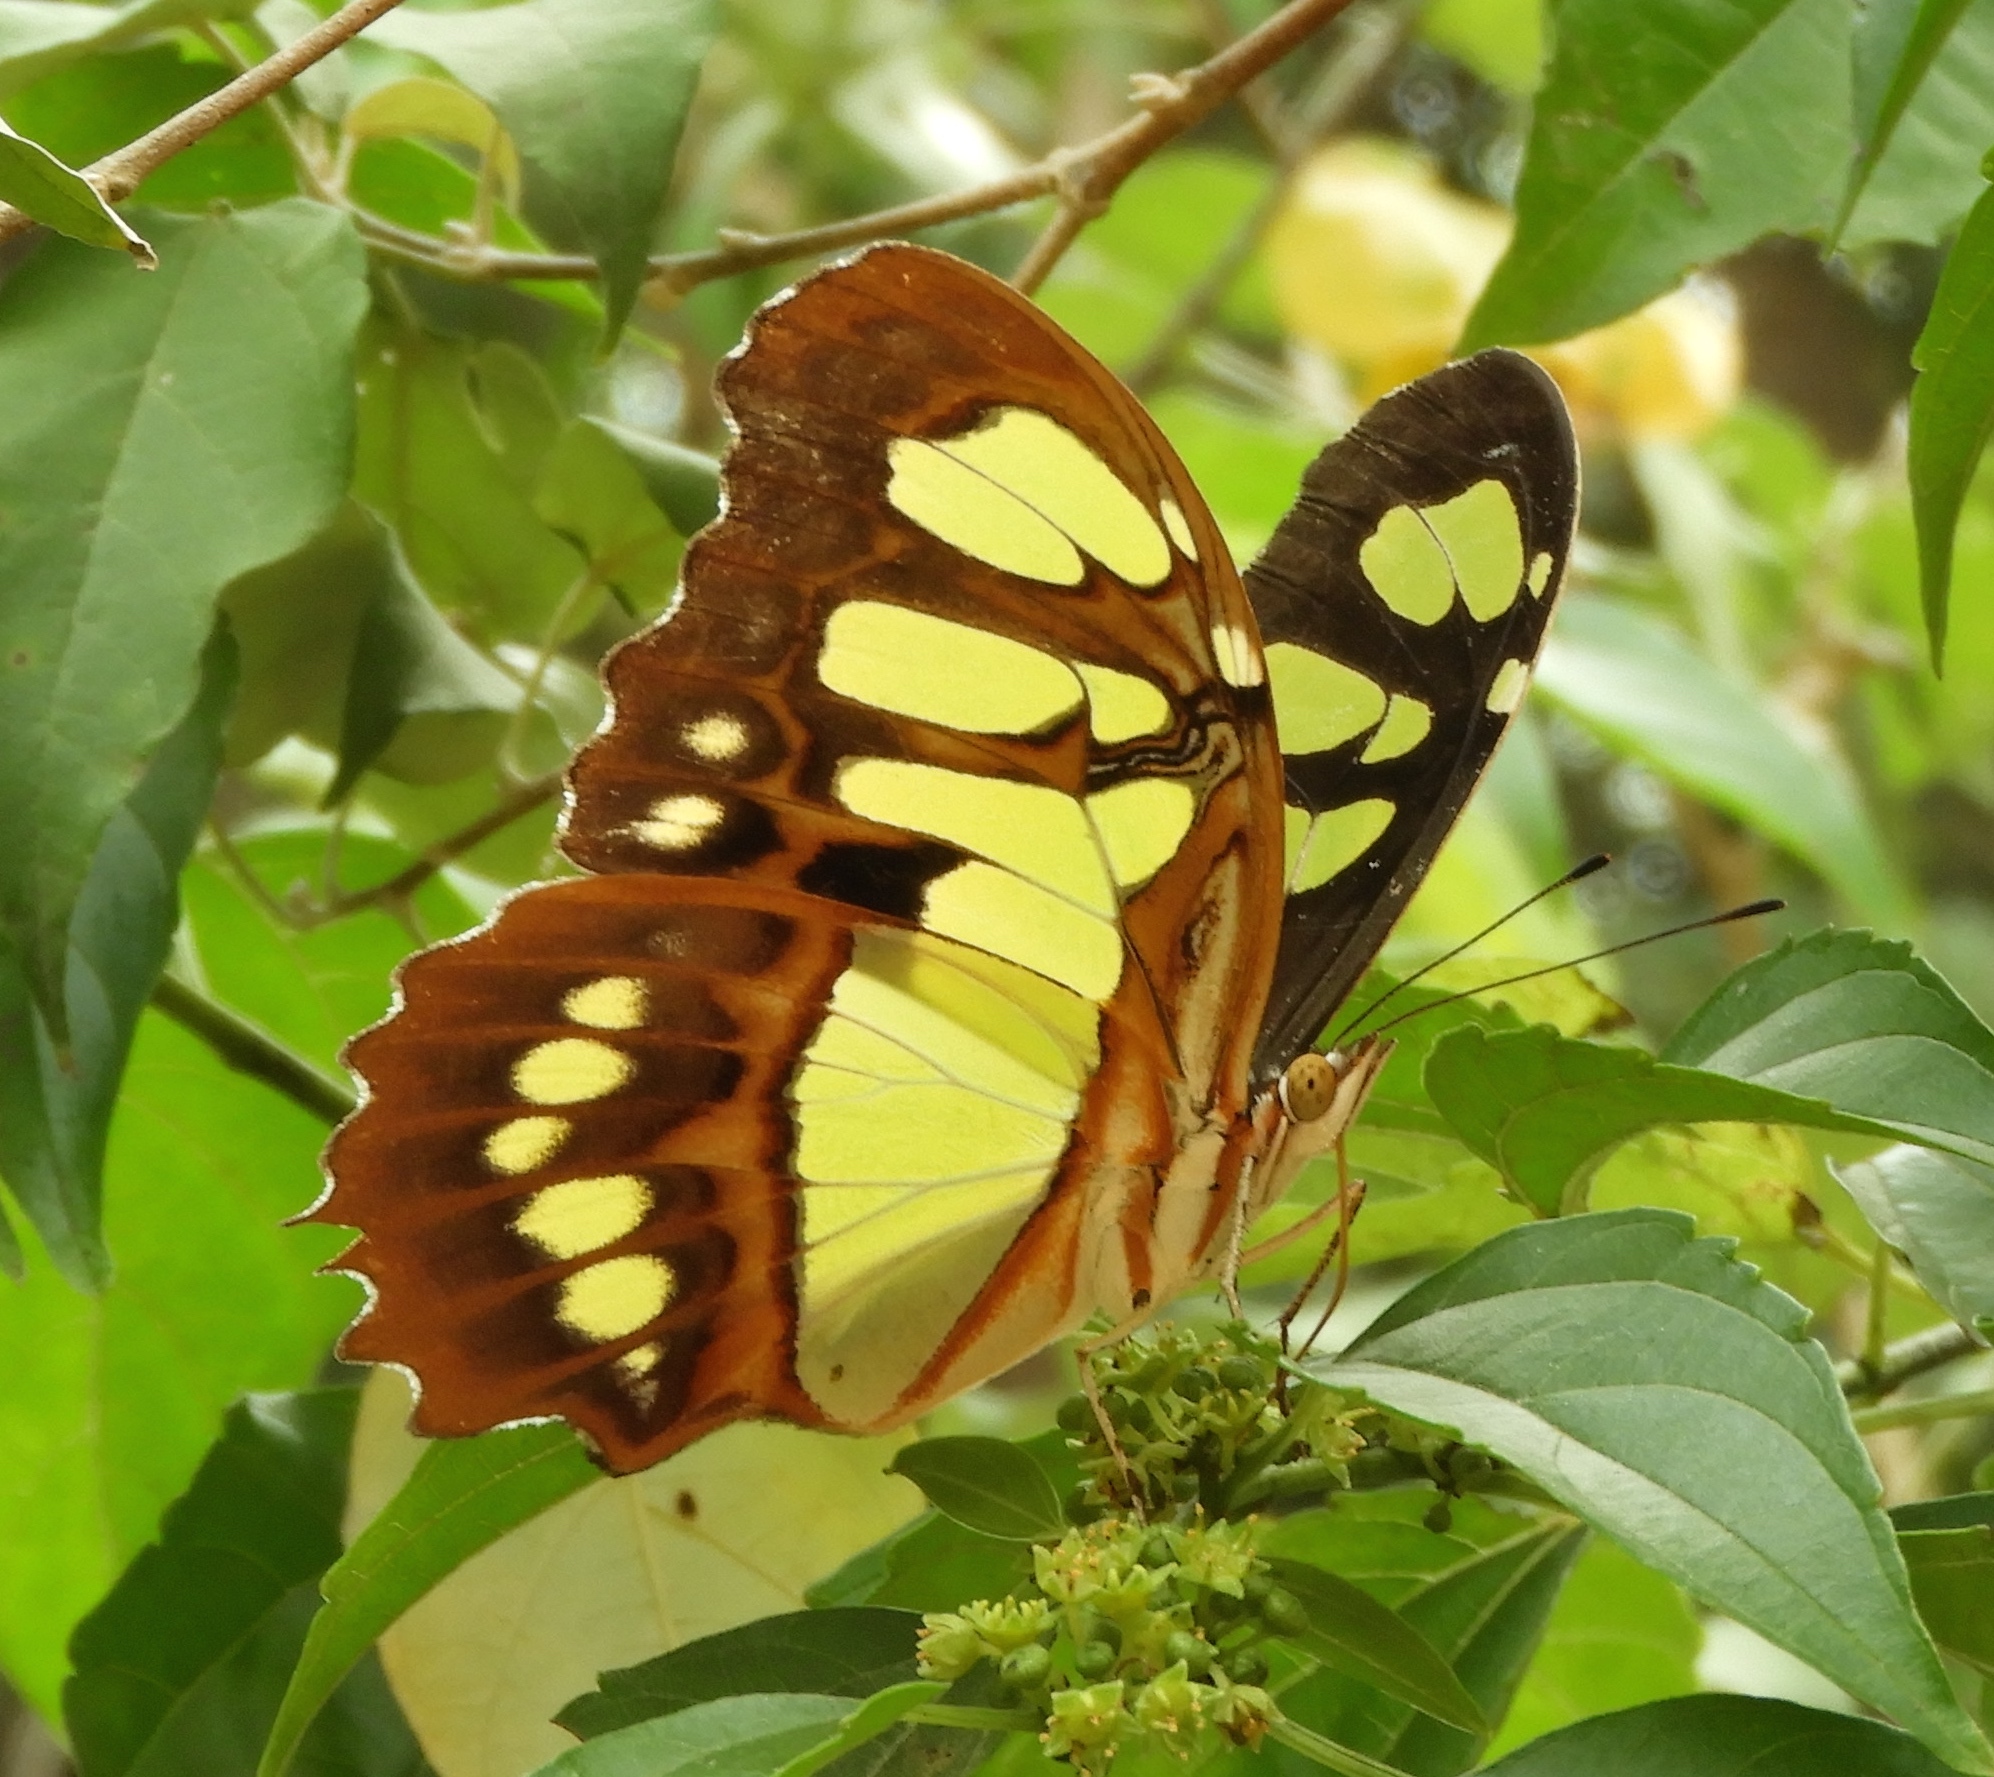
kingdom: Animalia
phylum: Arthropoda
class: Insecta
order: Lepidoptera
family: Nymphalidae
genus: Siproeta
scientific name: Siproeta stelenes
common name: Malachite
